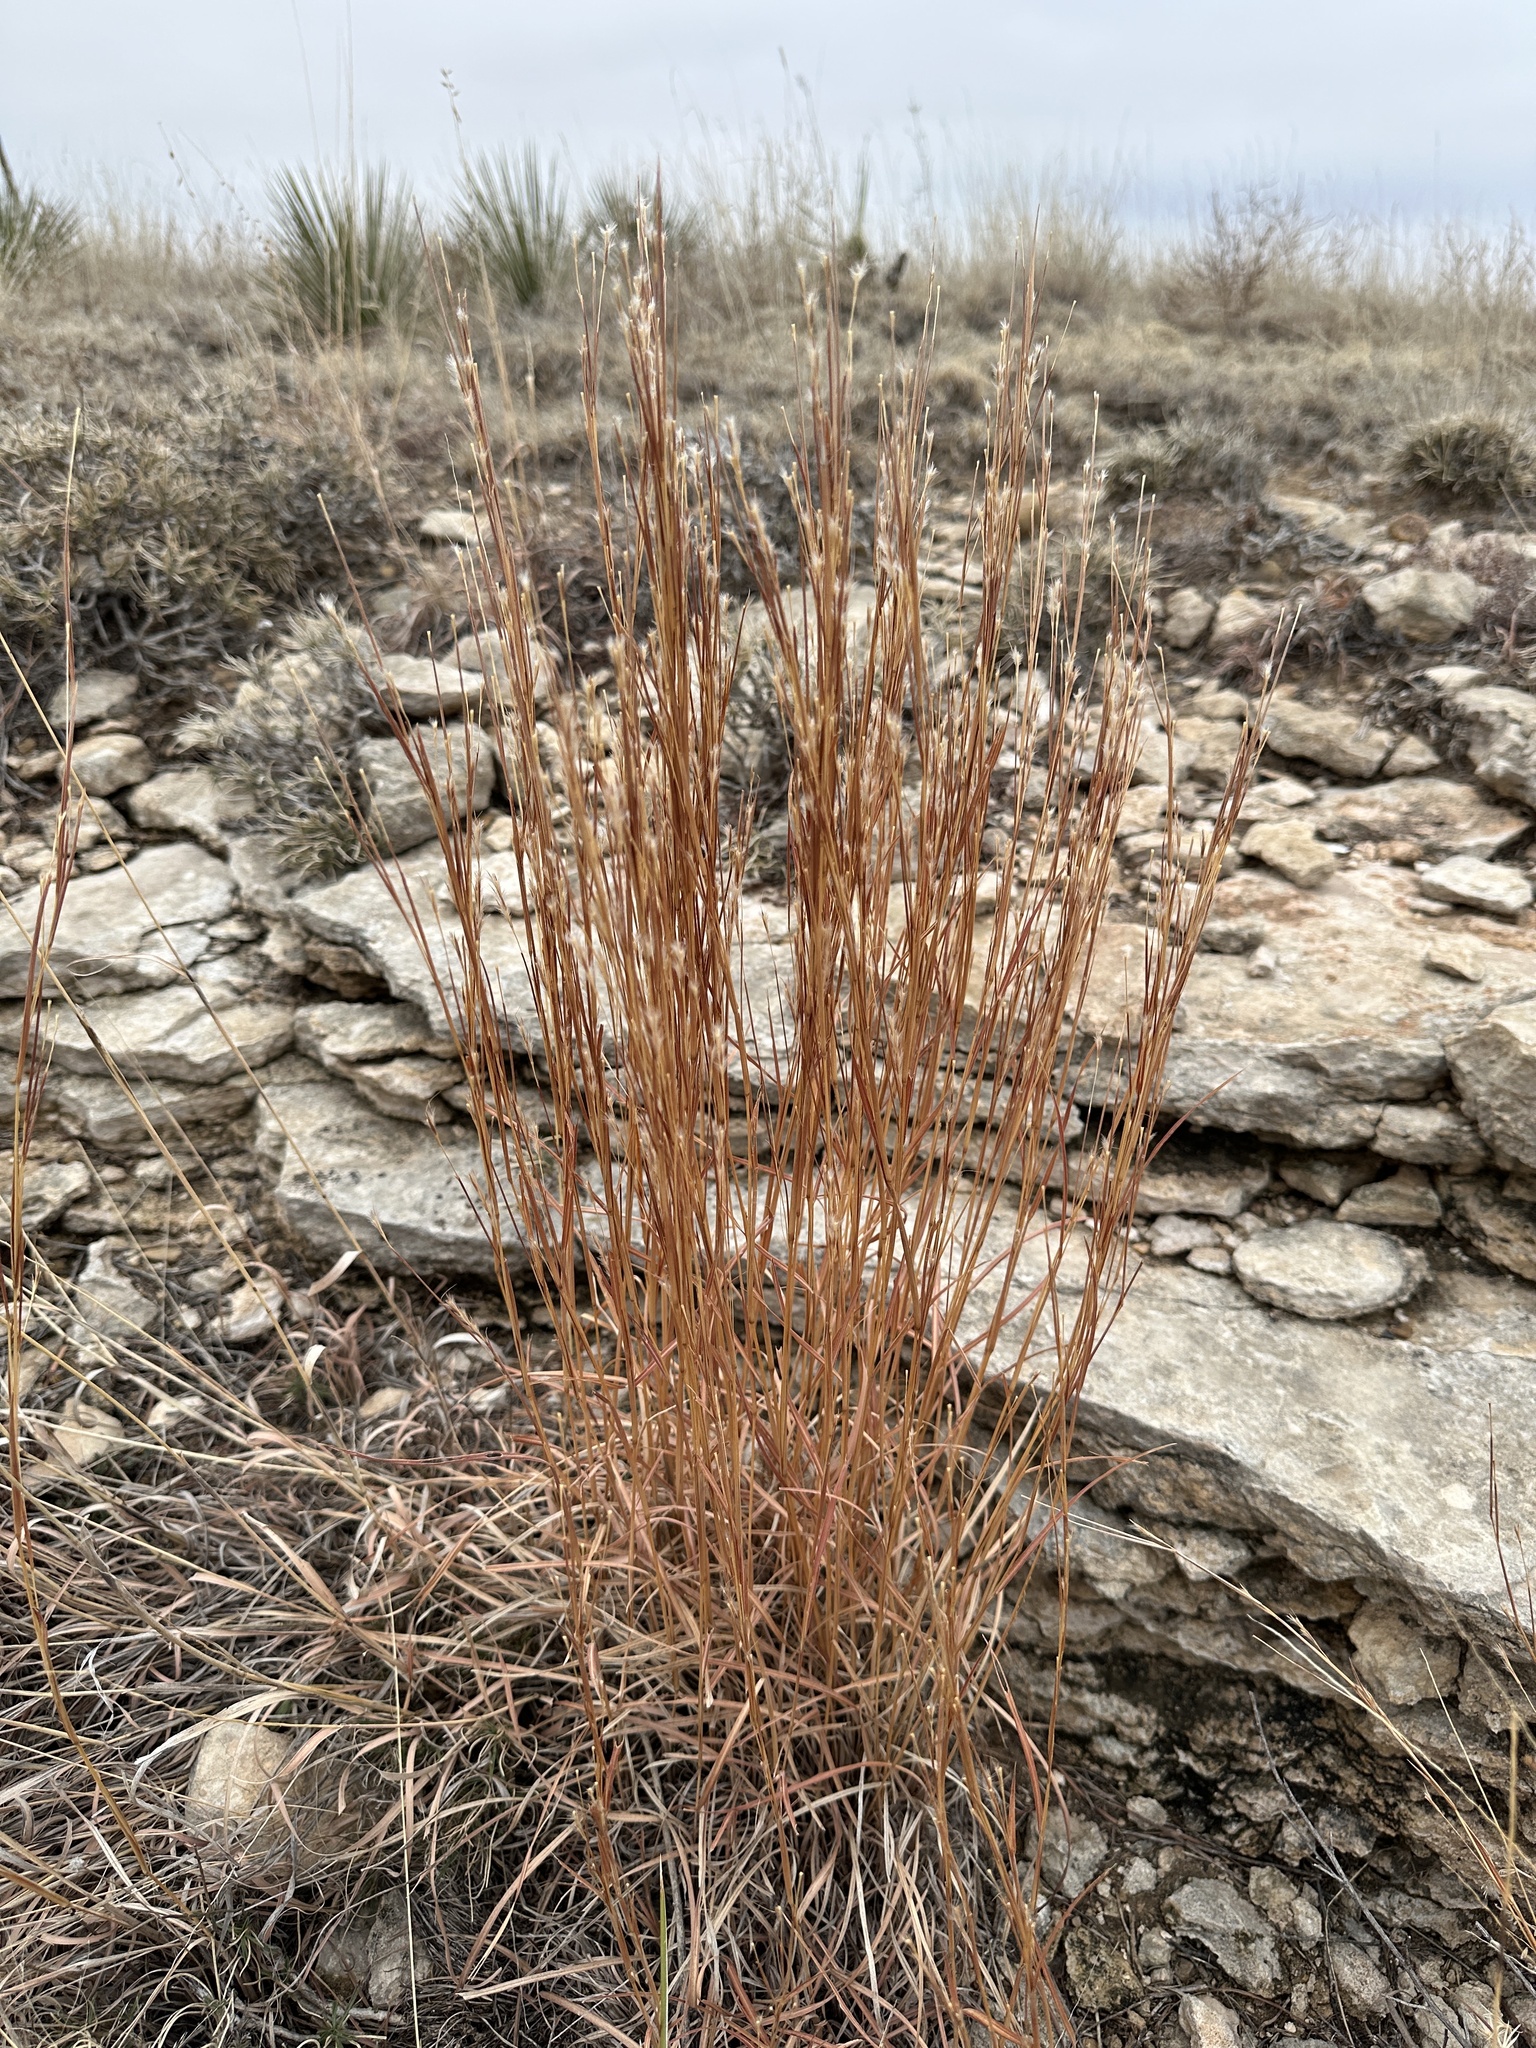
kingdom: Plantae
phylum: Tracheophyta
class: Liliopsida
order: Poales
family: Poaceae
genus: Schizachyrium
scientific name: Schizachyrium scoparium
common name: Little bluestem
